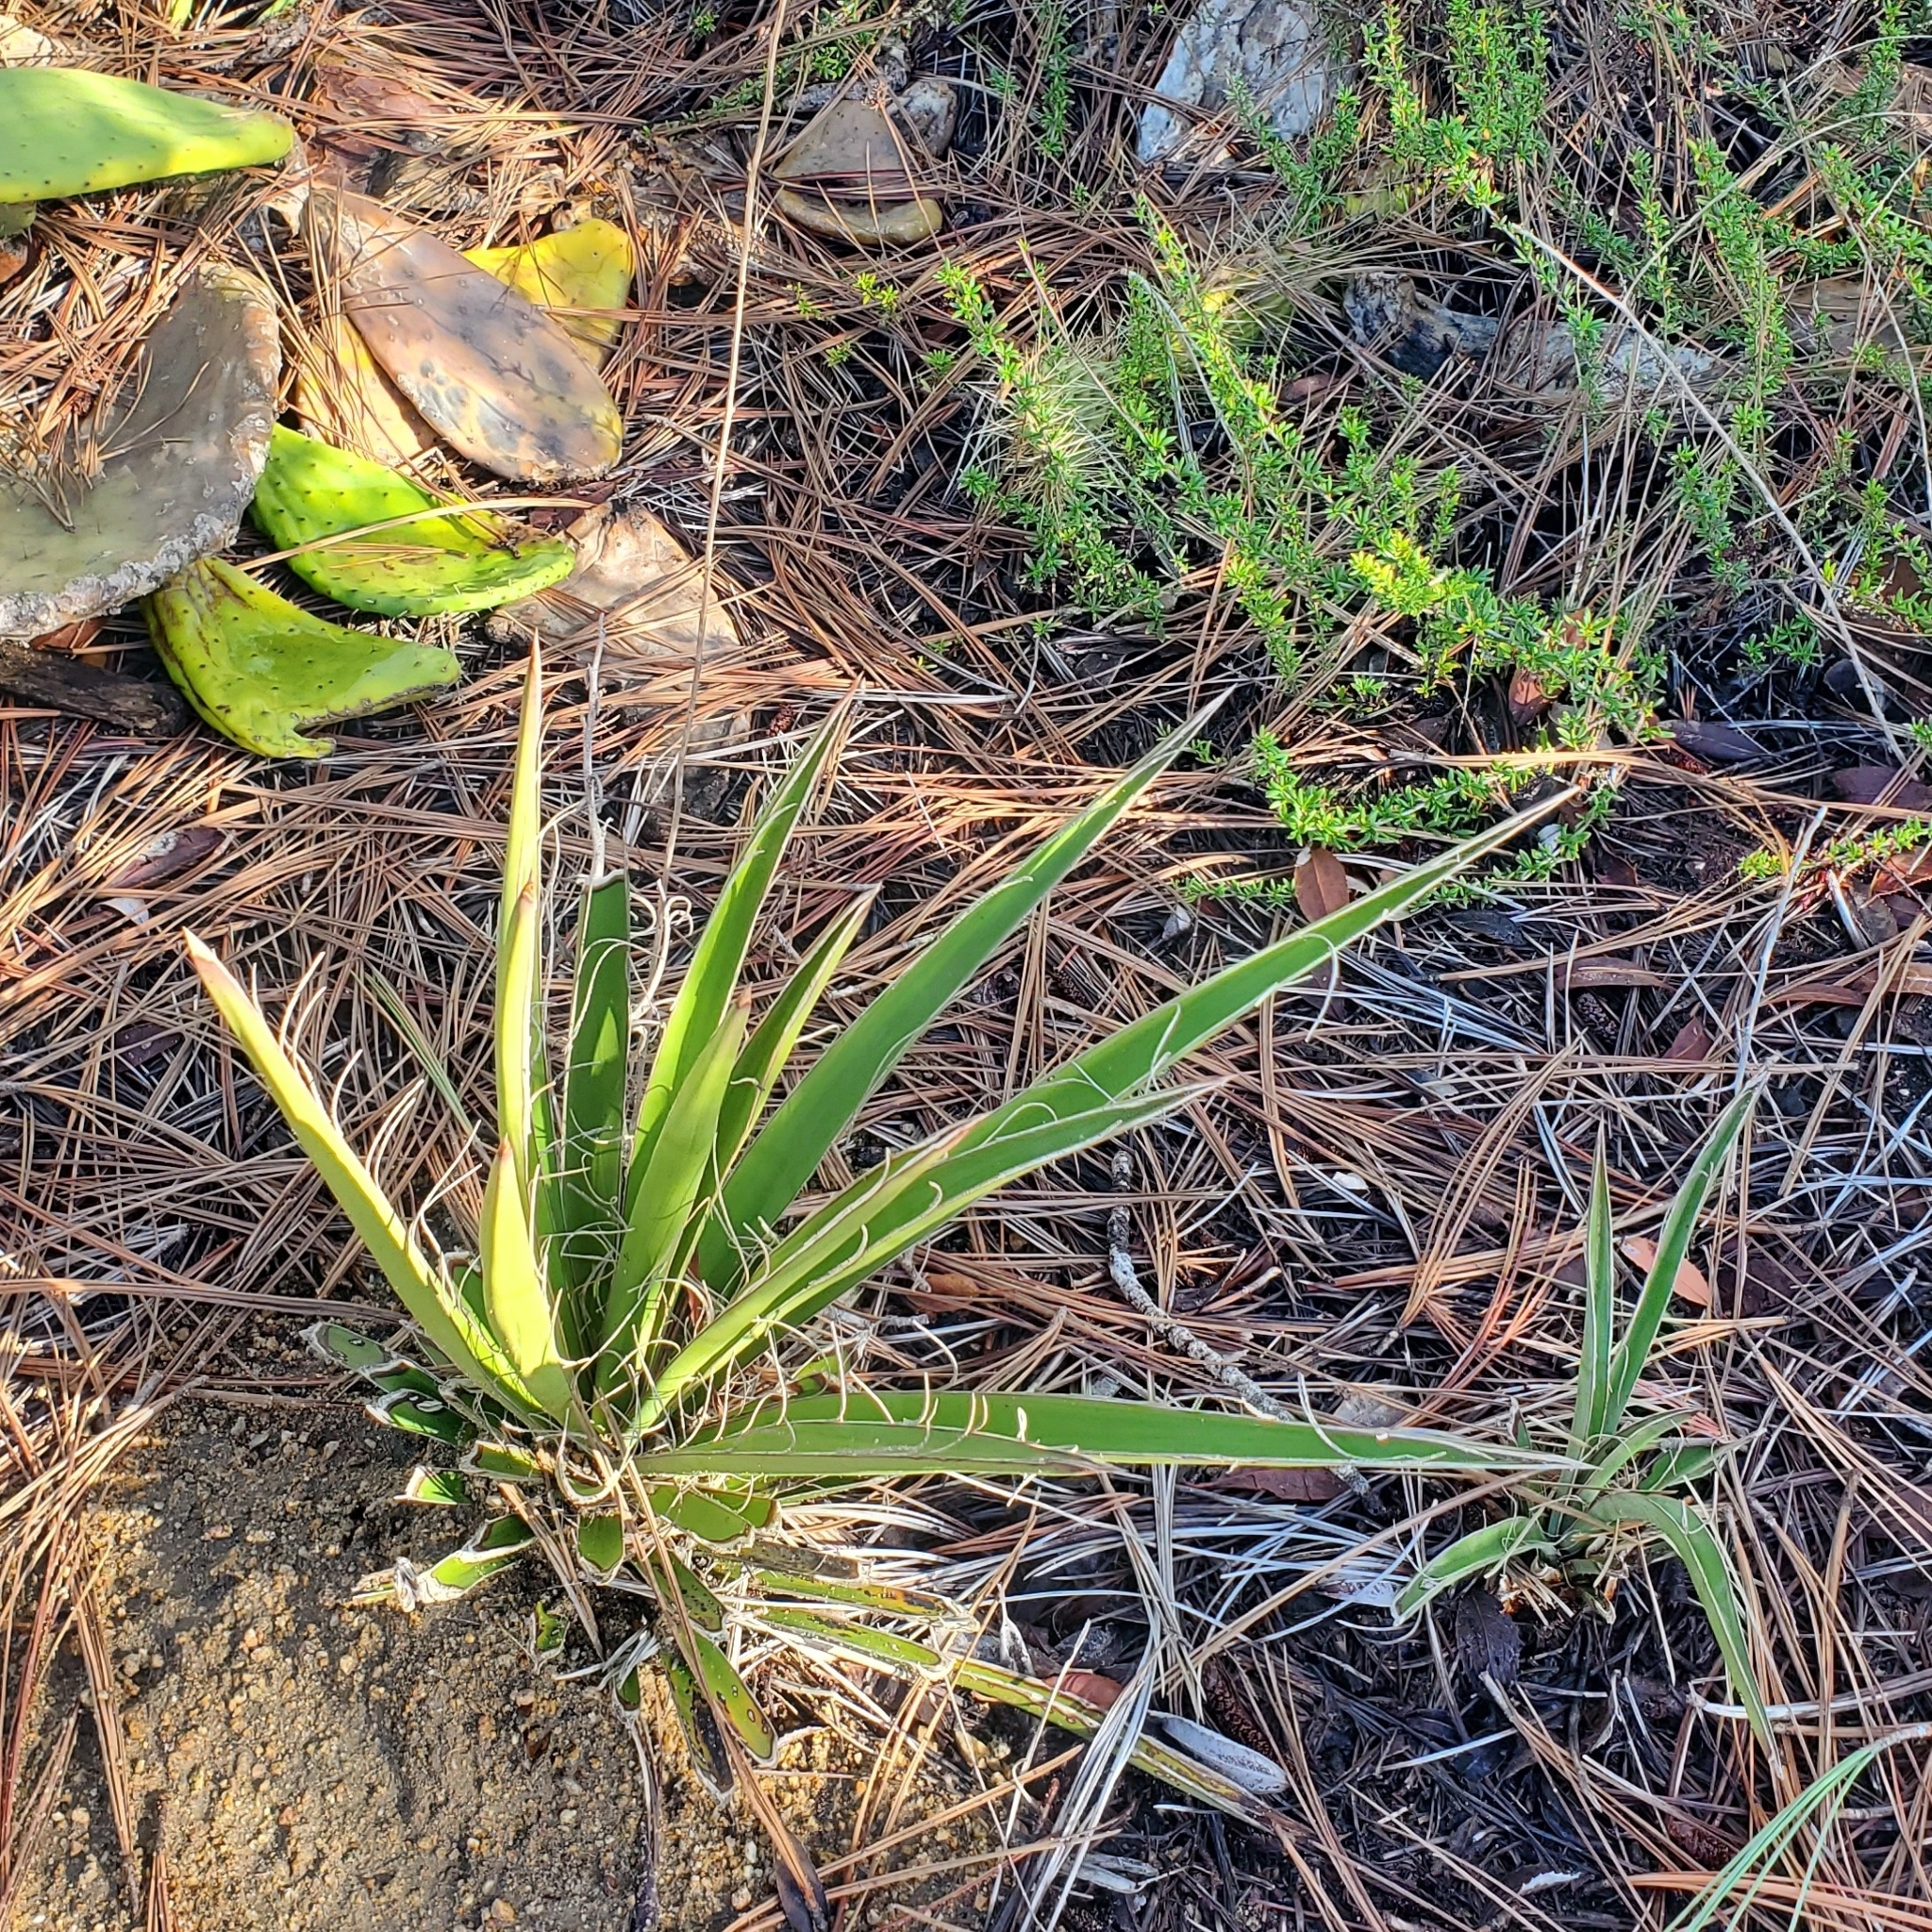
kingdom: Plantae
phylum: Tracheophyta
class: Liliopsida
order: Asparagales
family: Asparagaceae
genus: Yucca
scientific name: Yucca schidigera
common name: Mojave yucca
